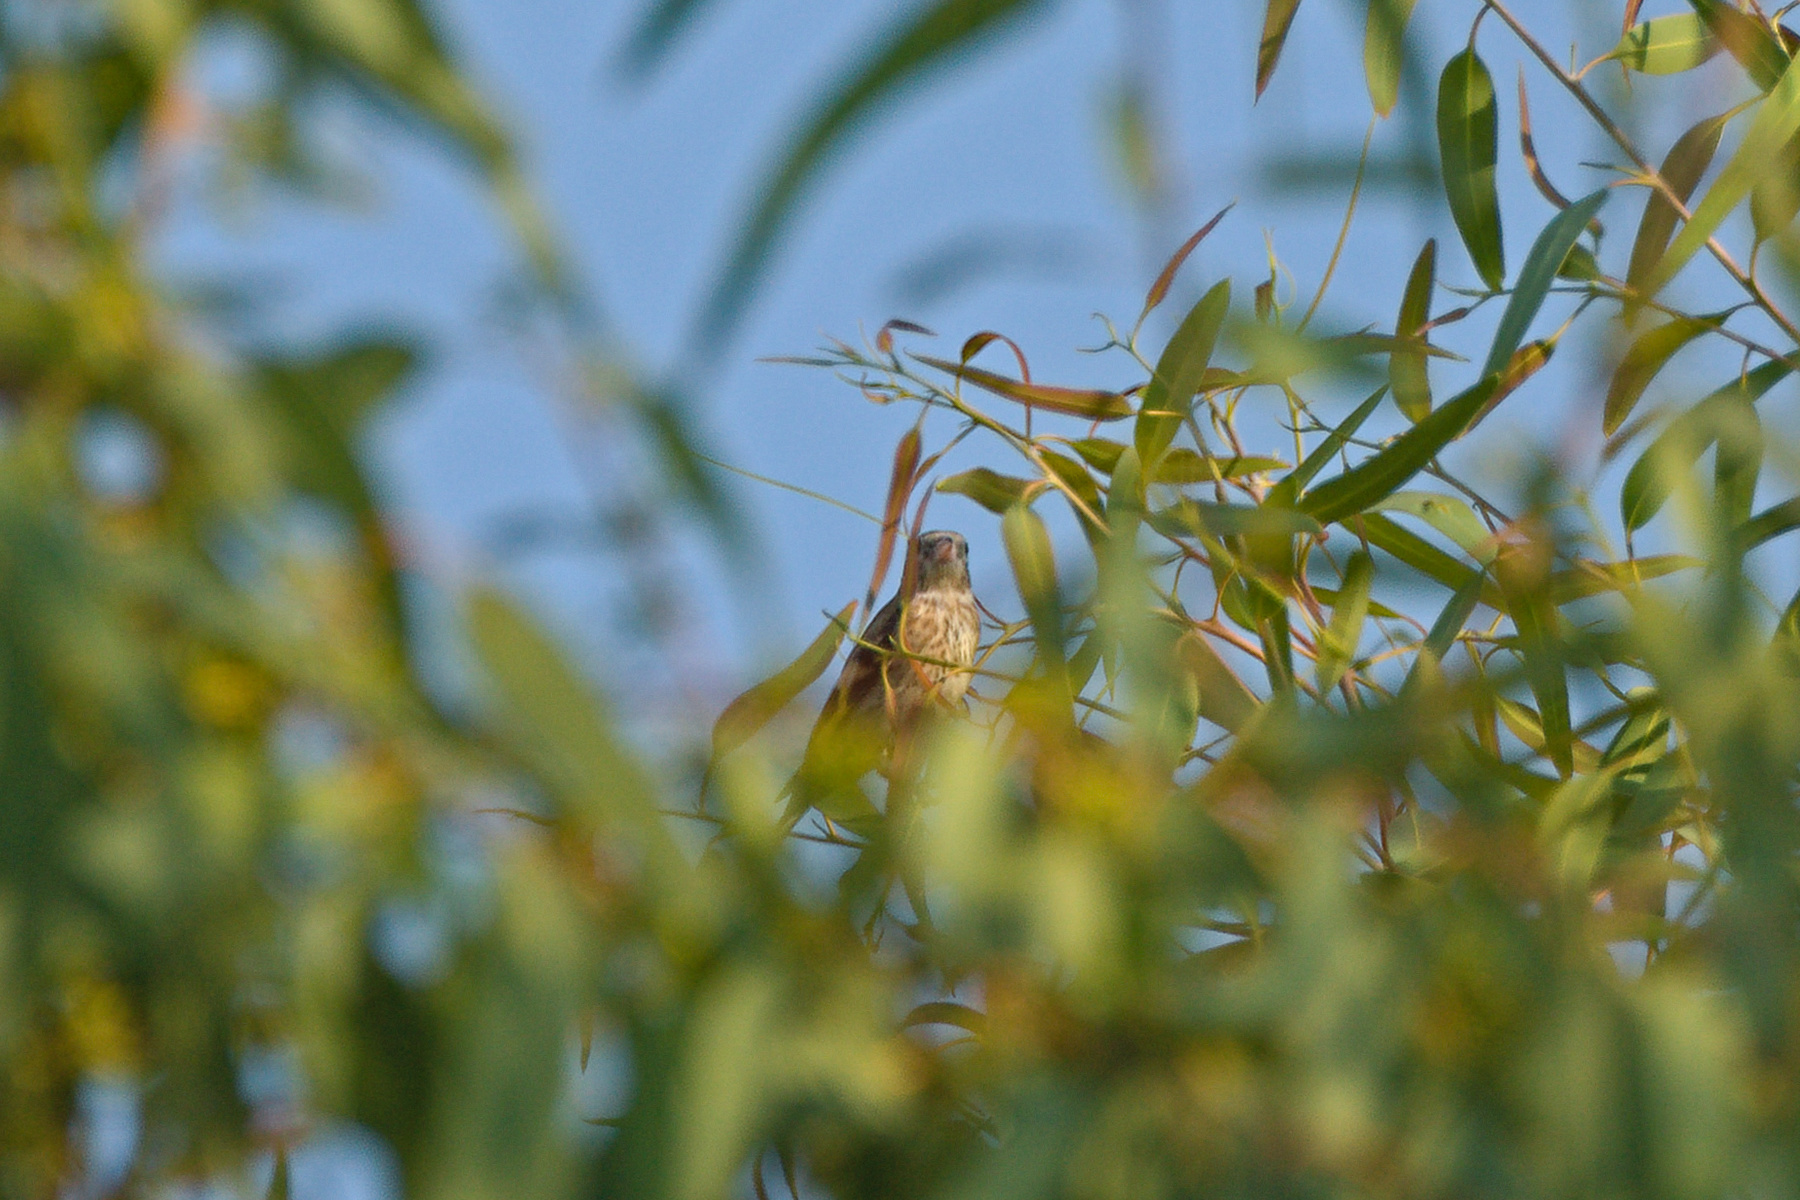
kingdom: Animalia
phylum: Chordata
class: Aves
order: Passeriformes
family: Fringillidae
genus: Carduelis
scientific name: Carduelis carduelis
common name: European goldfinch
